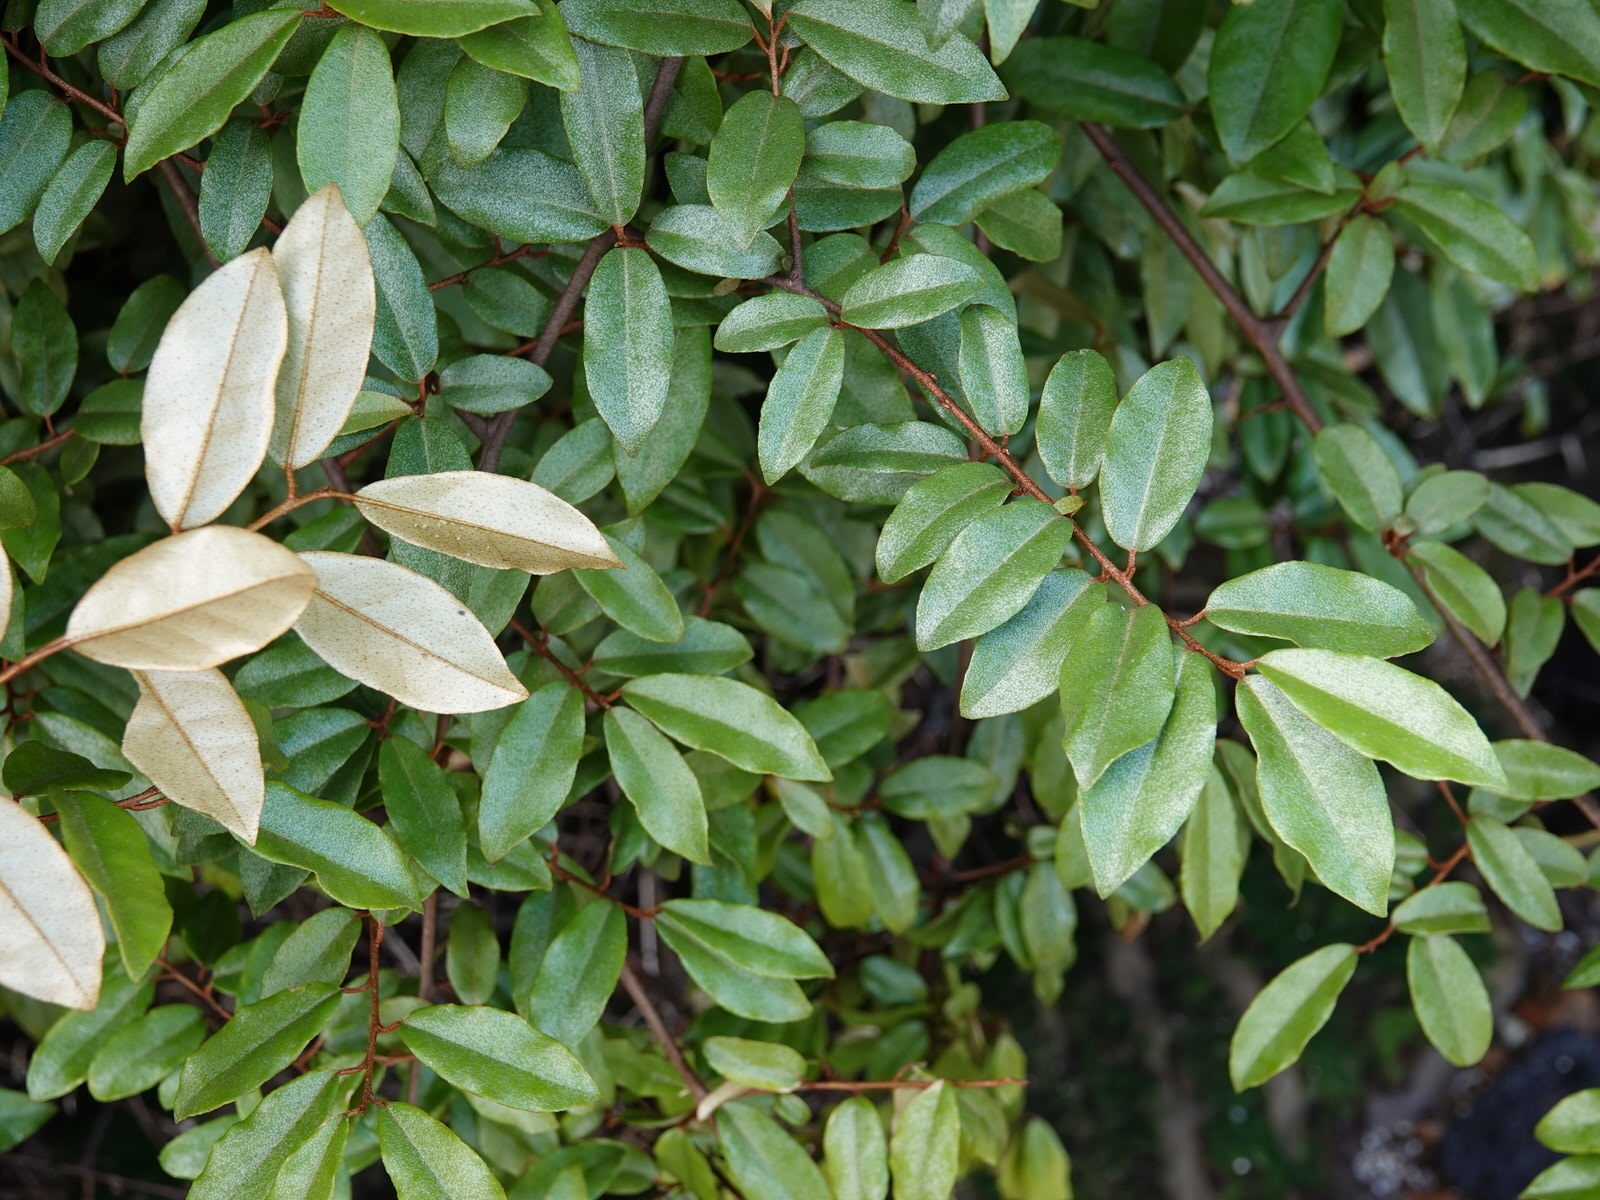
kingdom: Plantae
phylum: Tracheophyta
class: Magnoliopsida
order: Rosales
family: Elaeagnaceae
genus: Elaeagnus
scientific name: Elaeagnus reflexa
